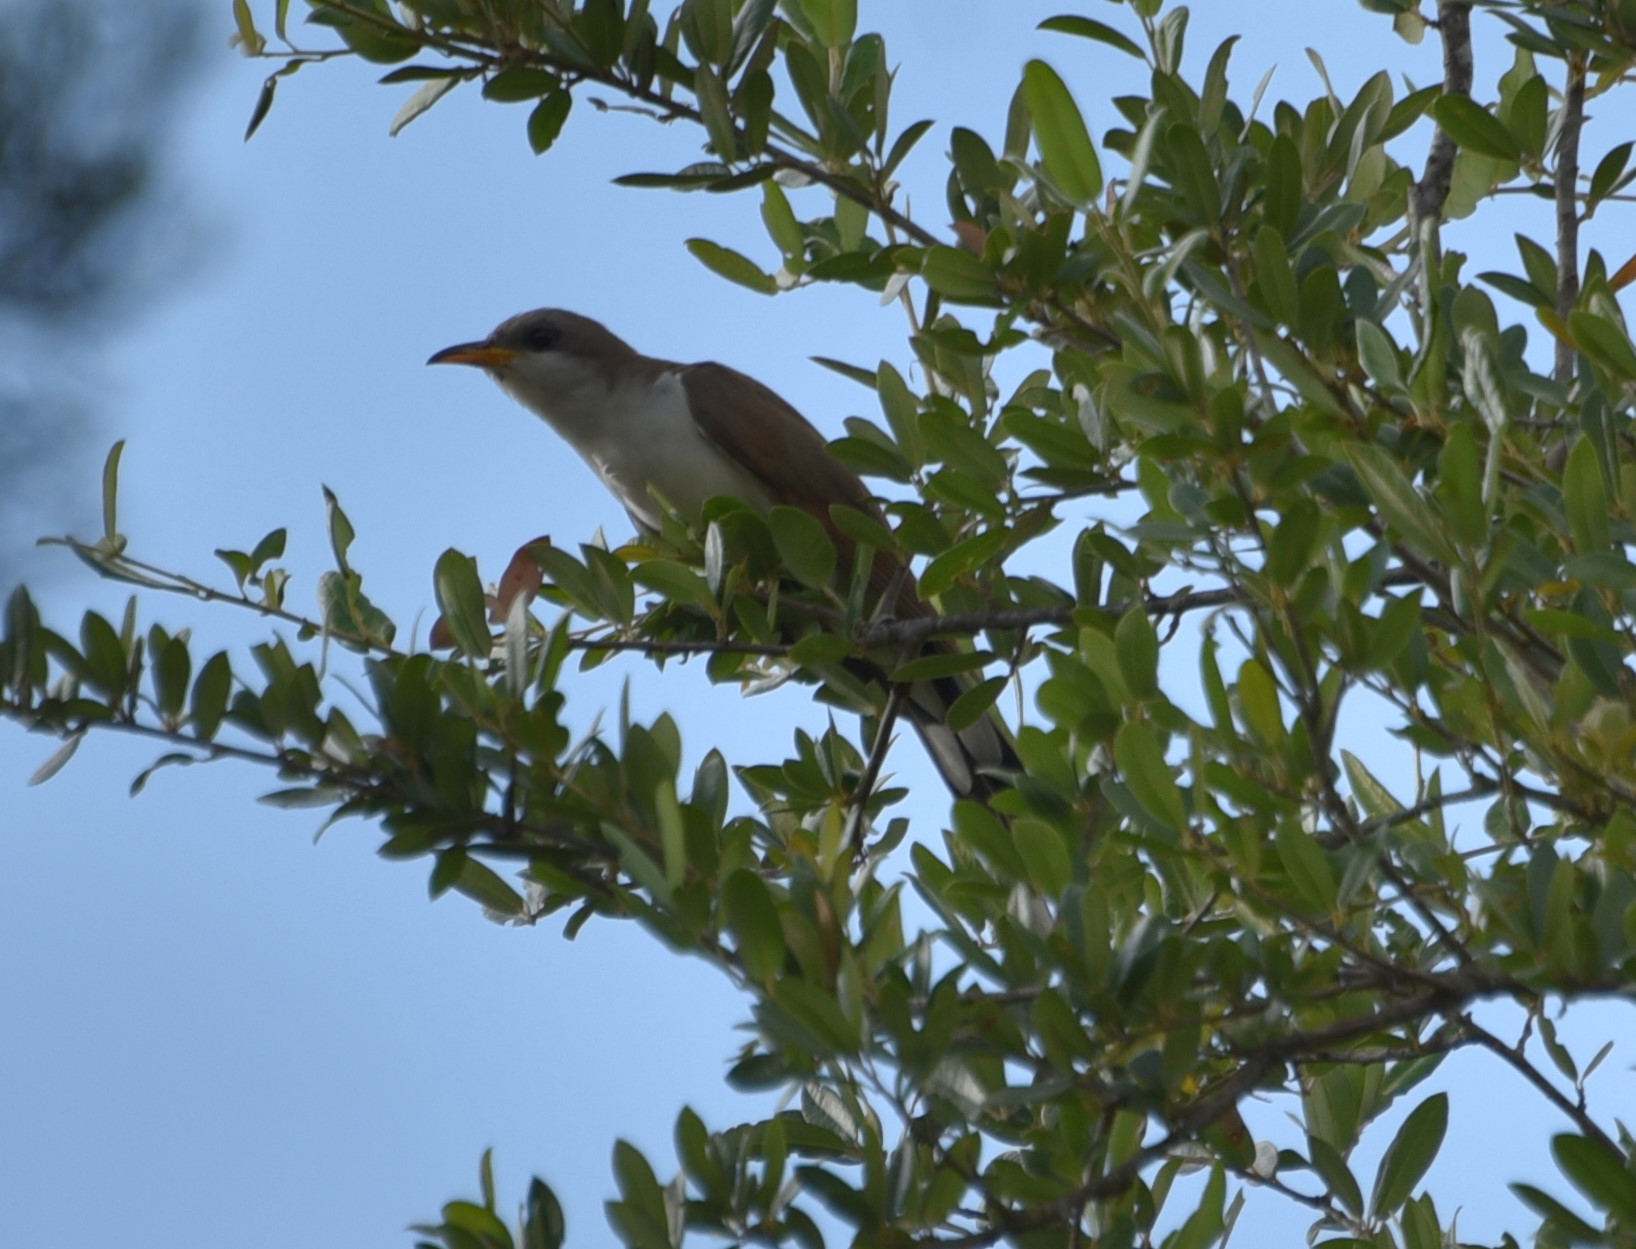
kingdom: Animalia
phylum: Chordata
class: Aves
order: Cuculiformes
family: Cuculidae
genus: Coccyzus
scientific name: Coccyzus americanus
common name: Yellow-billed cuckoo
